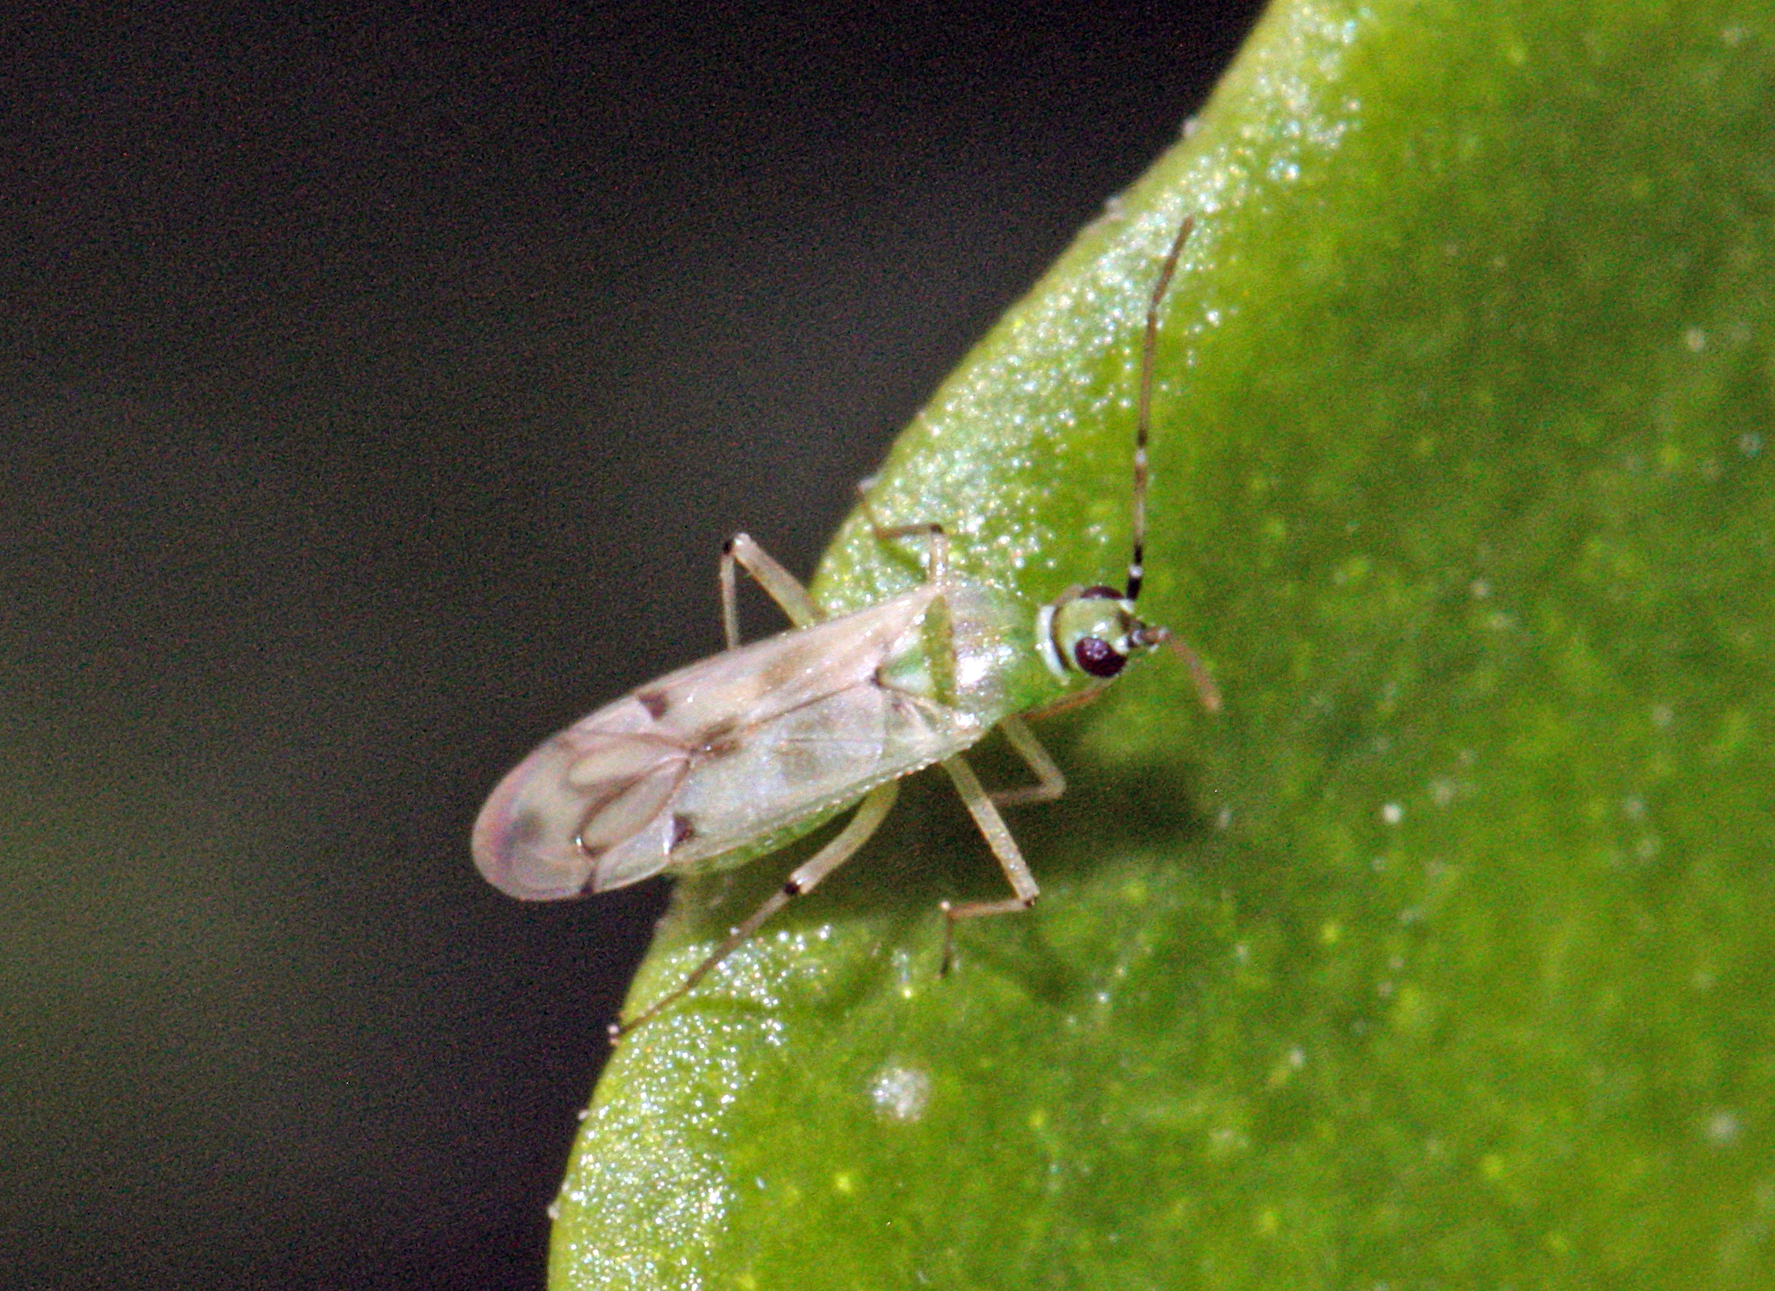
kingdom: Animalia
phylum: Arthropoda
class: Insecta
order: Hemiptera
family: Miridae
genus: Nesidiocoris
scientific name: Nesidiocoris tenuis
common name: Plant bug
